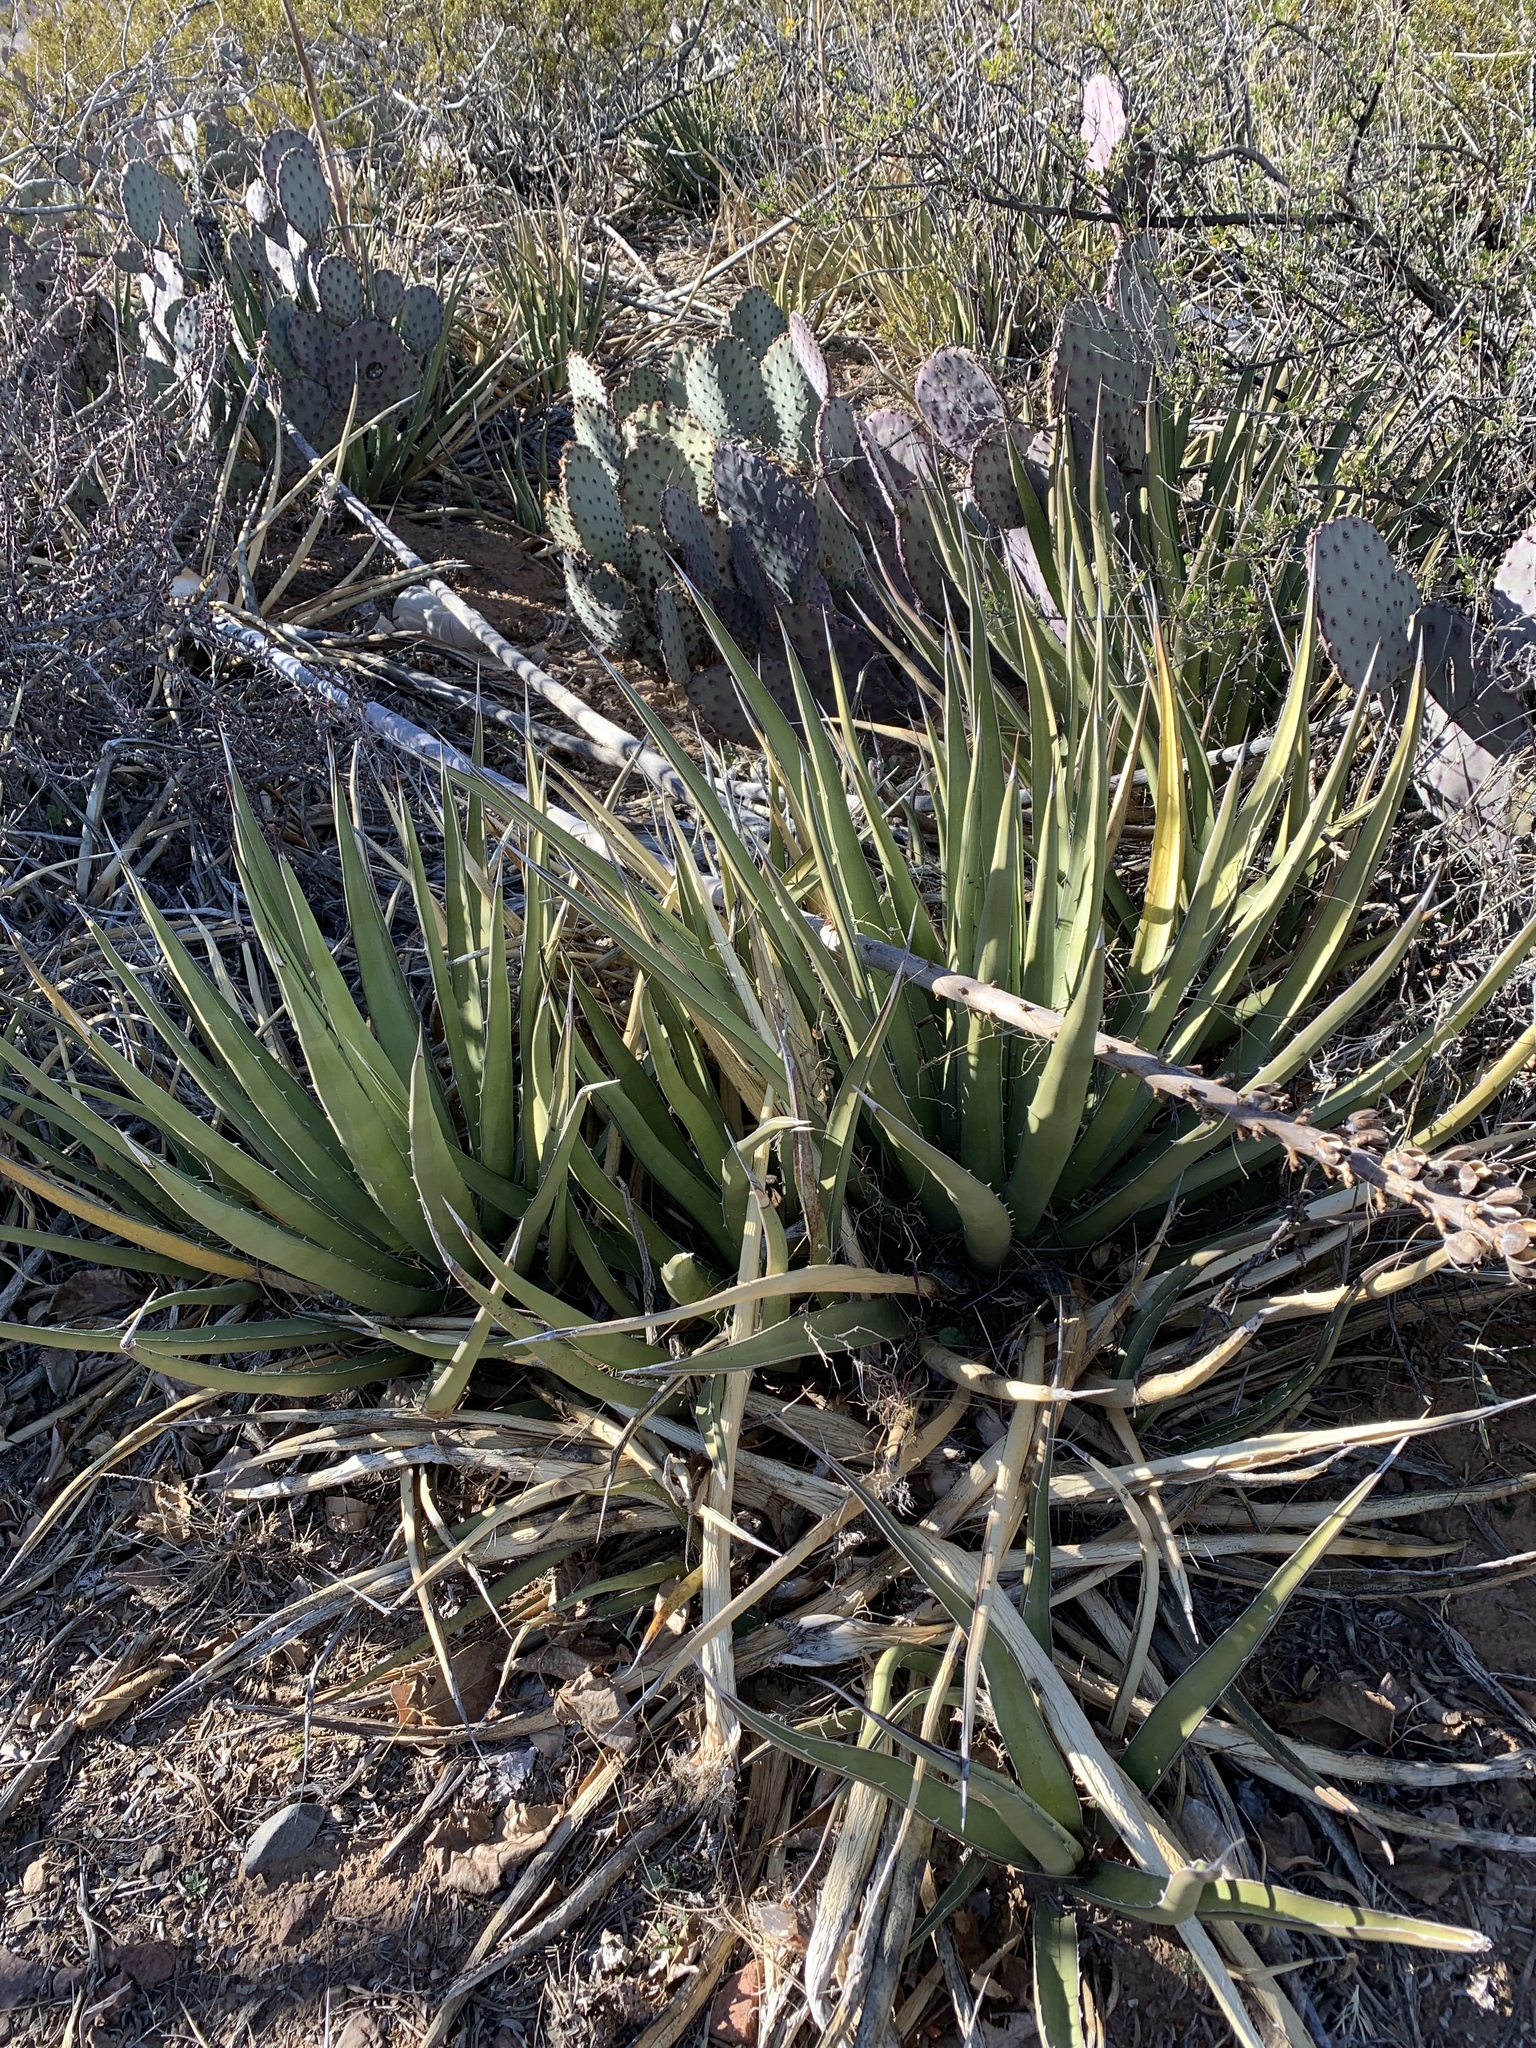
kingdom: Plantae
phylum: Tracheophyta
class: Liliopsida
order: Asparagales
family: Asparagaceae
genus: Agave
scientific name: Agave lechuguilla
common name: Lecheguilla agave
